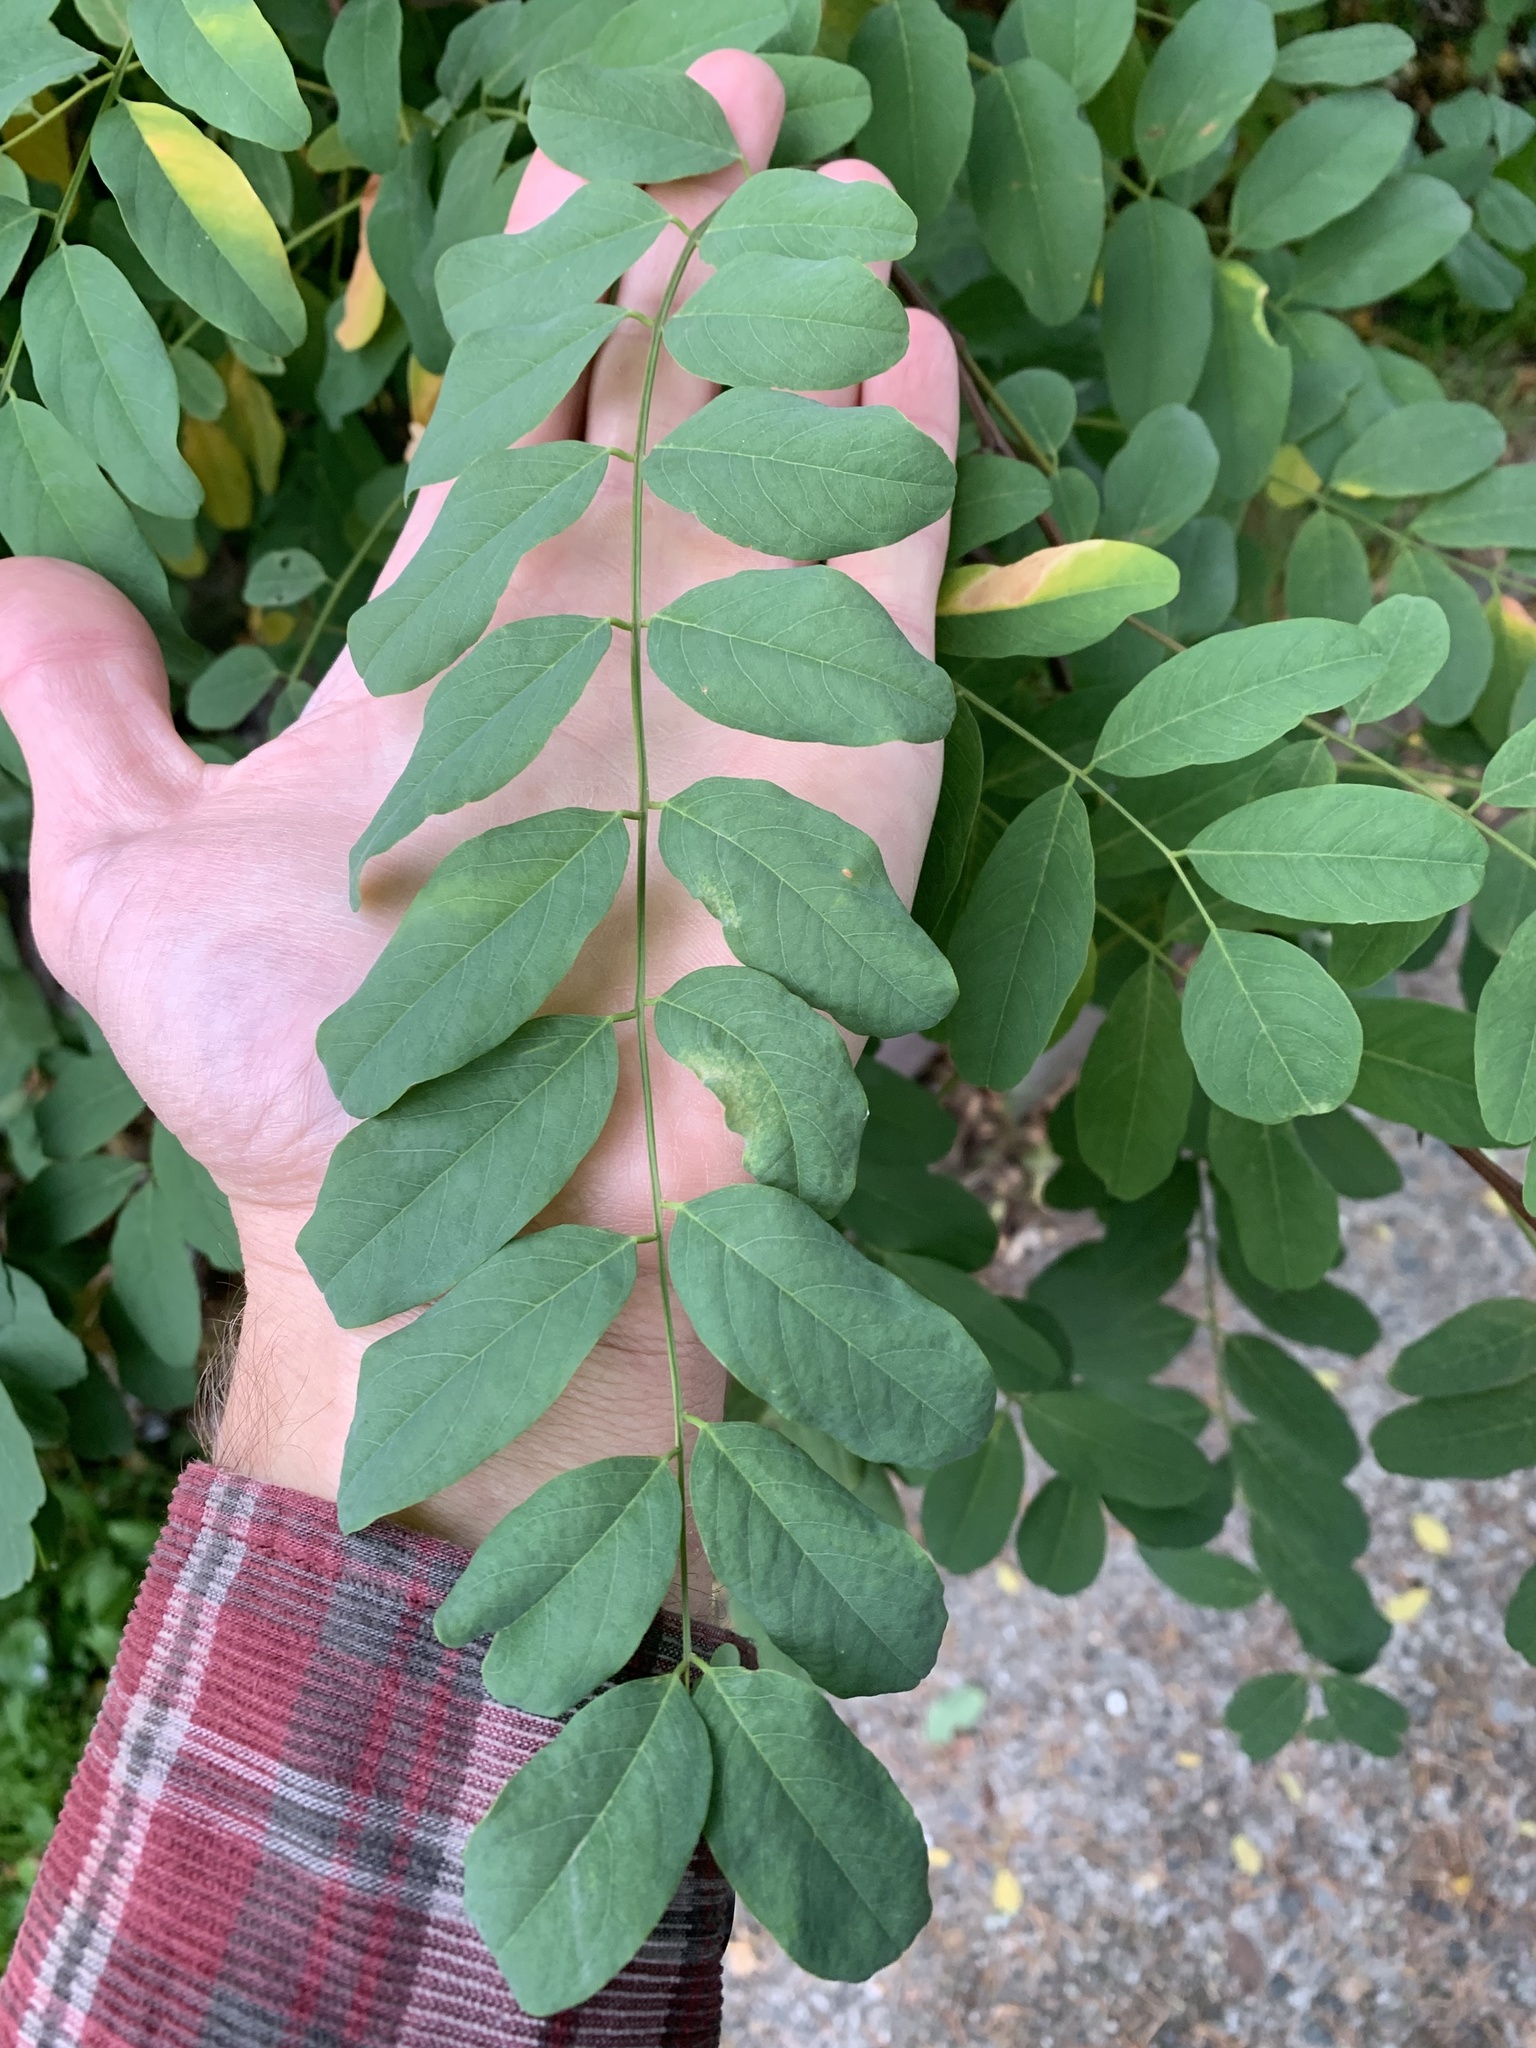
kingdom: Plantae
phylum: Tracheophyta
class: Magnoliopsida
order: Fabales
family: Fabaceae
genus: Robinia
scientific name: Robinia pseudoacacia
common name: Black locust
